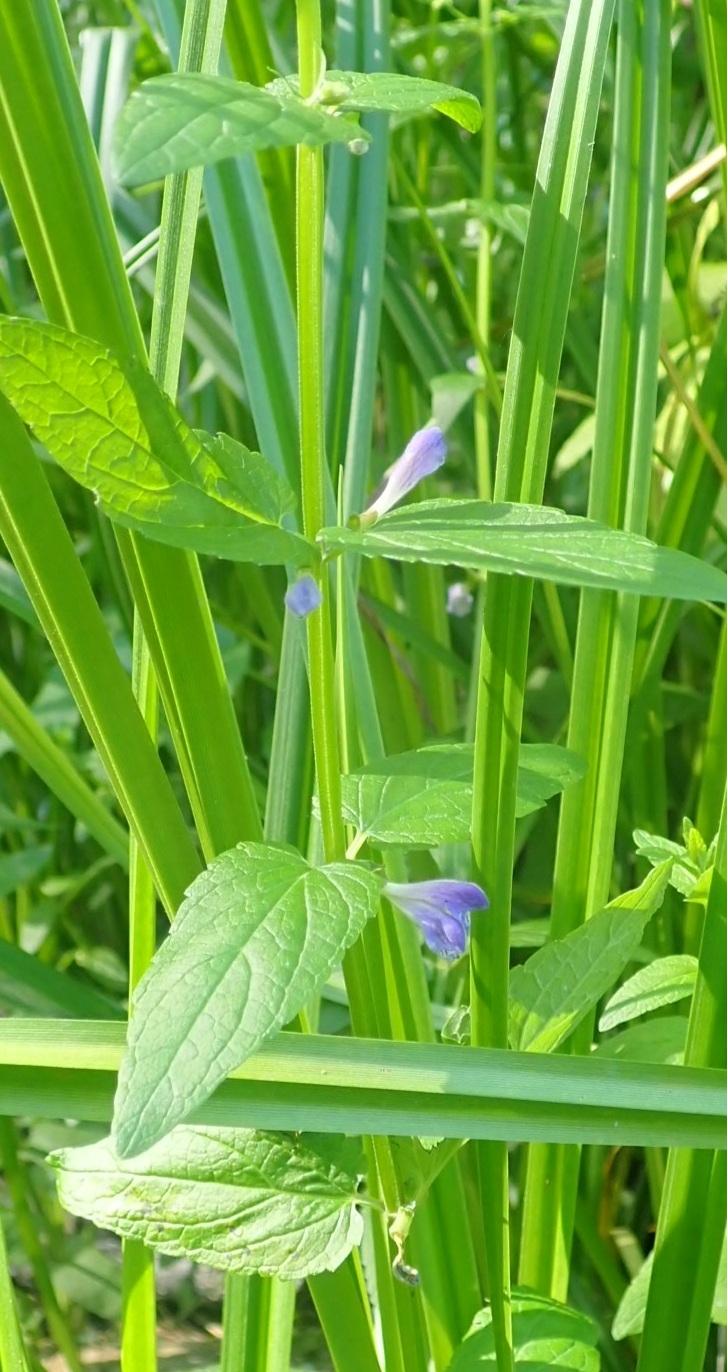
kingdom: Plantae
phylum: Tracheophyta
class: Magnoliopsida
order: Lamiales
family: Lamiaceae
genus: Scutellaria
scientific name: Scutellaria galericulata
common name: Skullcap
